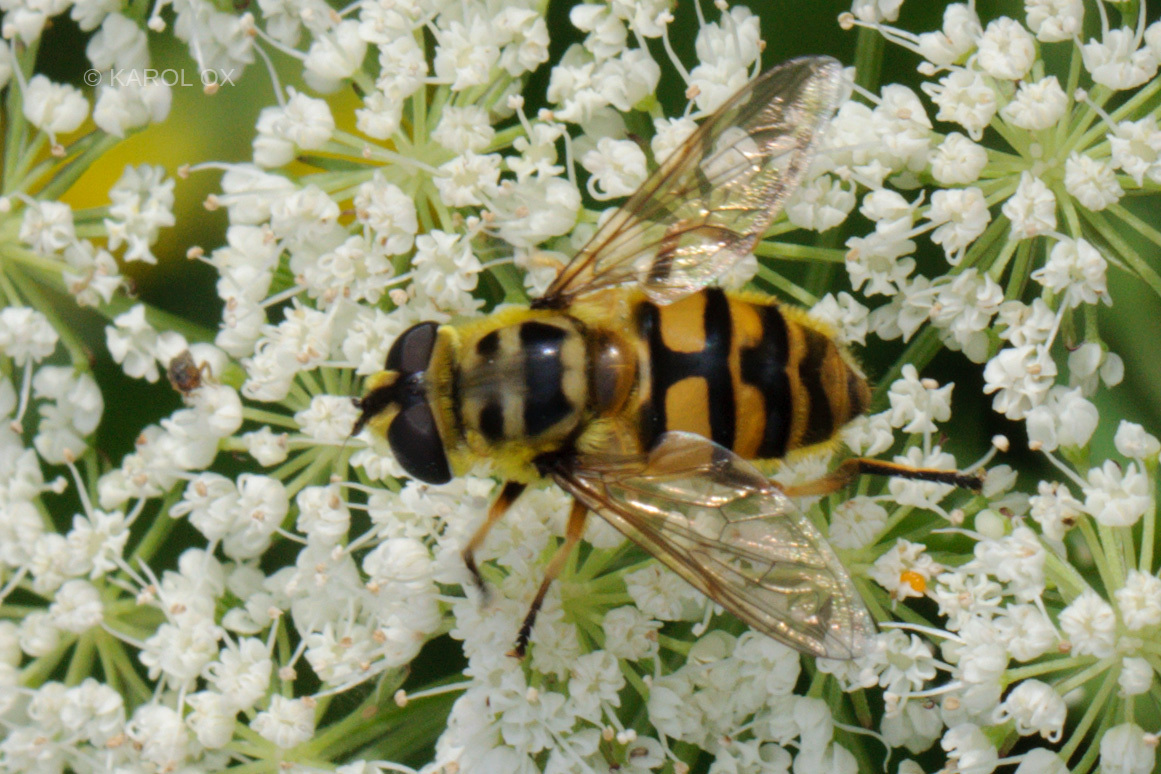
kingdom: Animalia
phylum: Arthropoda
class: Insecta
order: Diptera
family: Syrphidae
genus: Myathropa
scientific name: Myathropa florea
